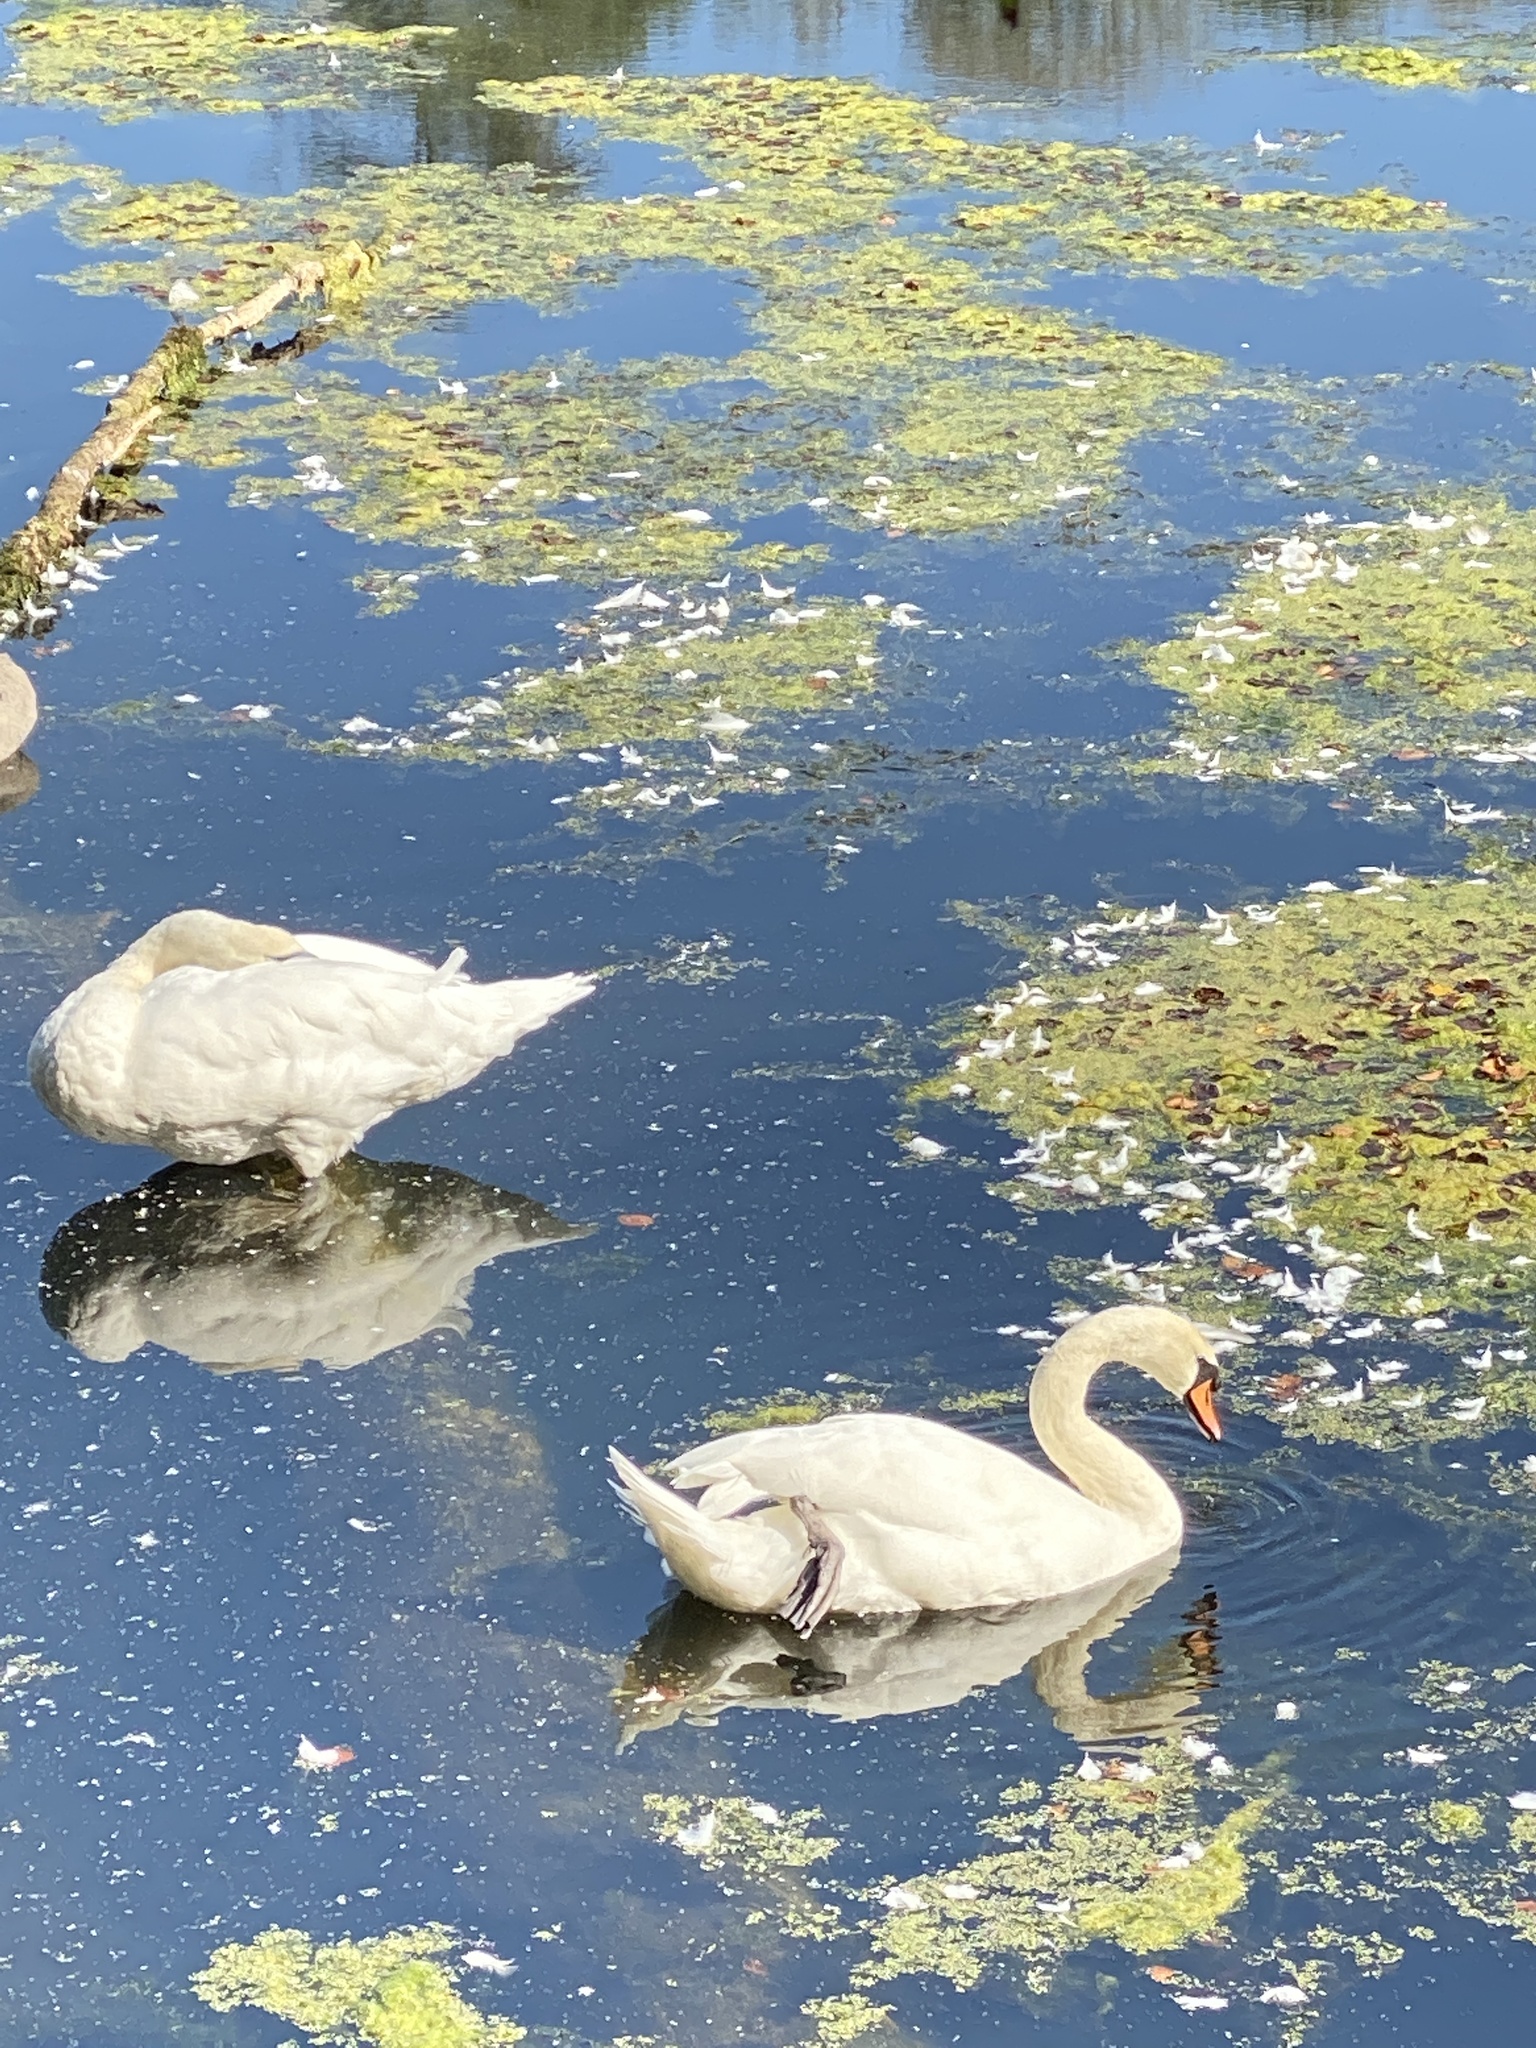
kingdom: Animalia
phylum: Chordata
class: Aves
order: Anseriformes
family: Anatidae
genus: Cygnus
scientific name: Cygnus olor
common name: Mute swan
